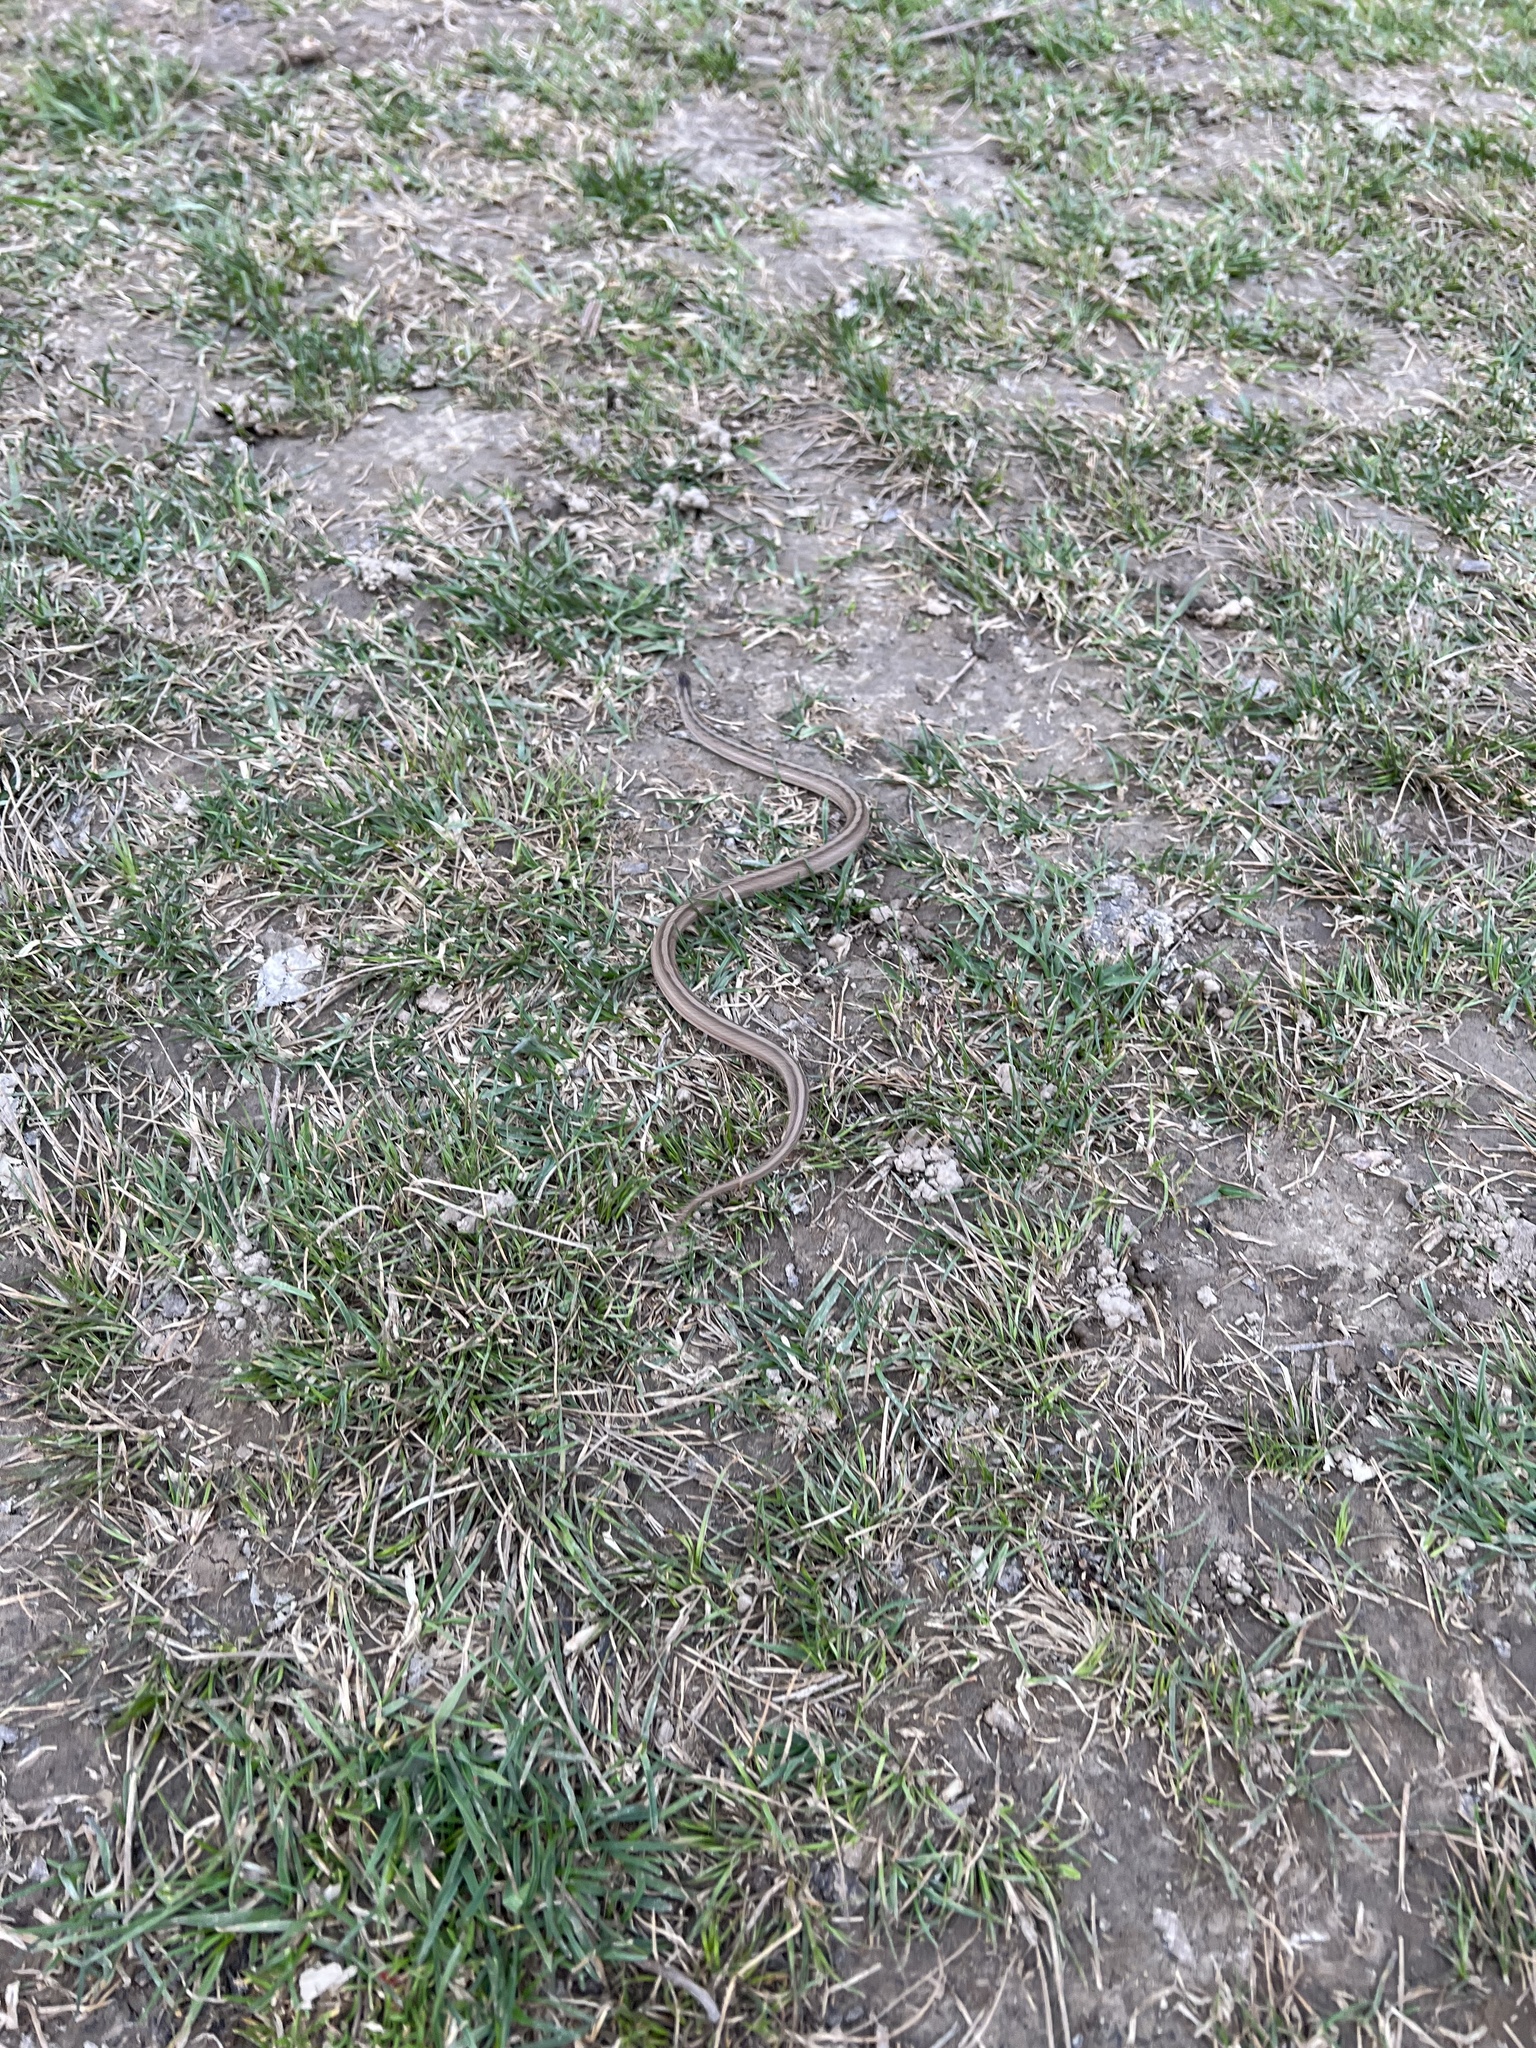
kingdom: Animalia
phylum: Chordata
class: Squamata
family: Colubridae
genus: Storeria
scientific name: Storeria dekayi
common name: (dekay’s) brown snake
